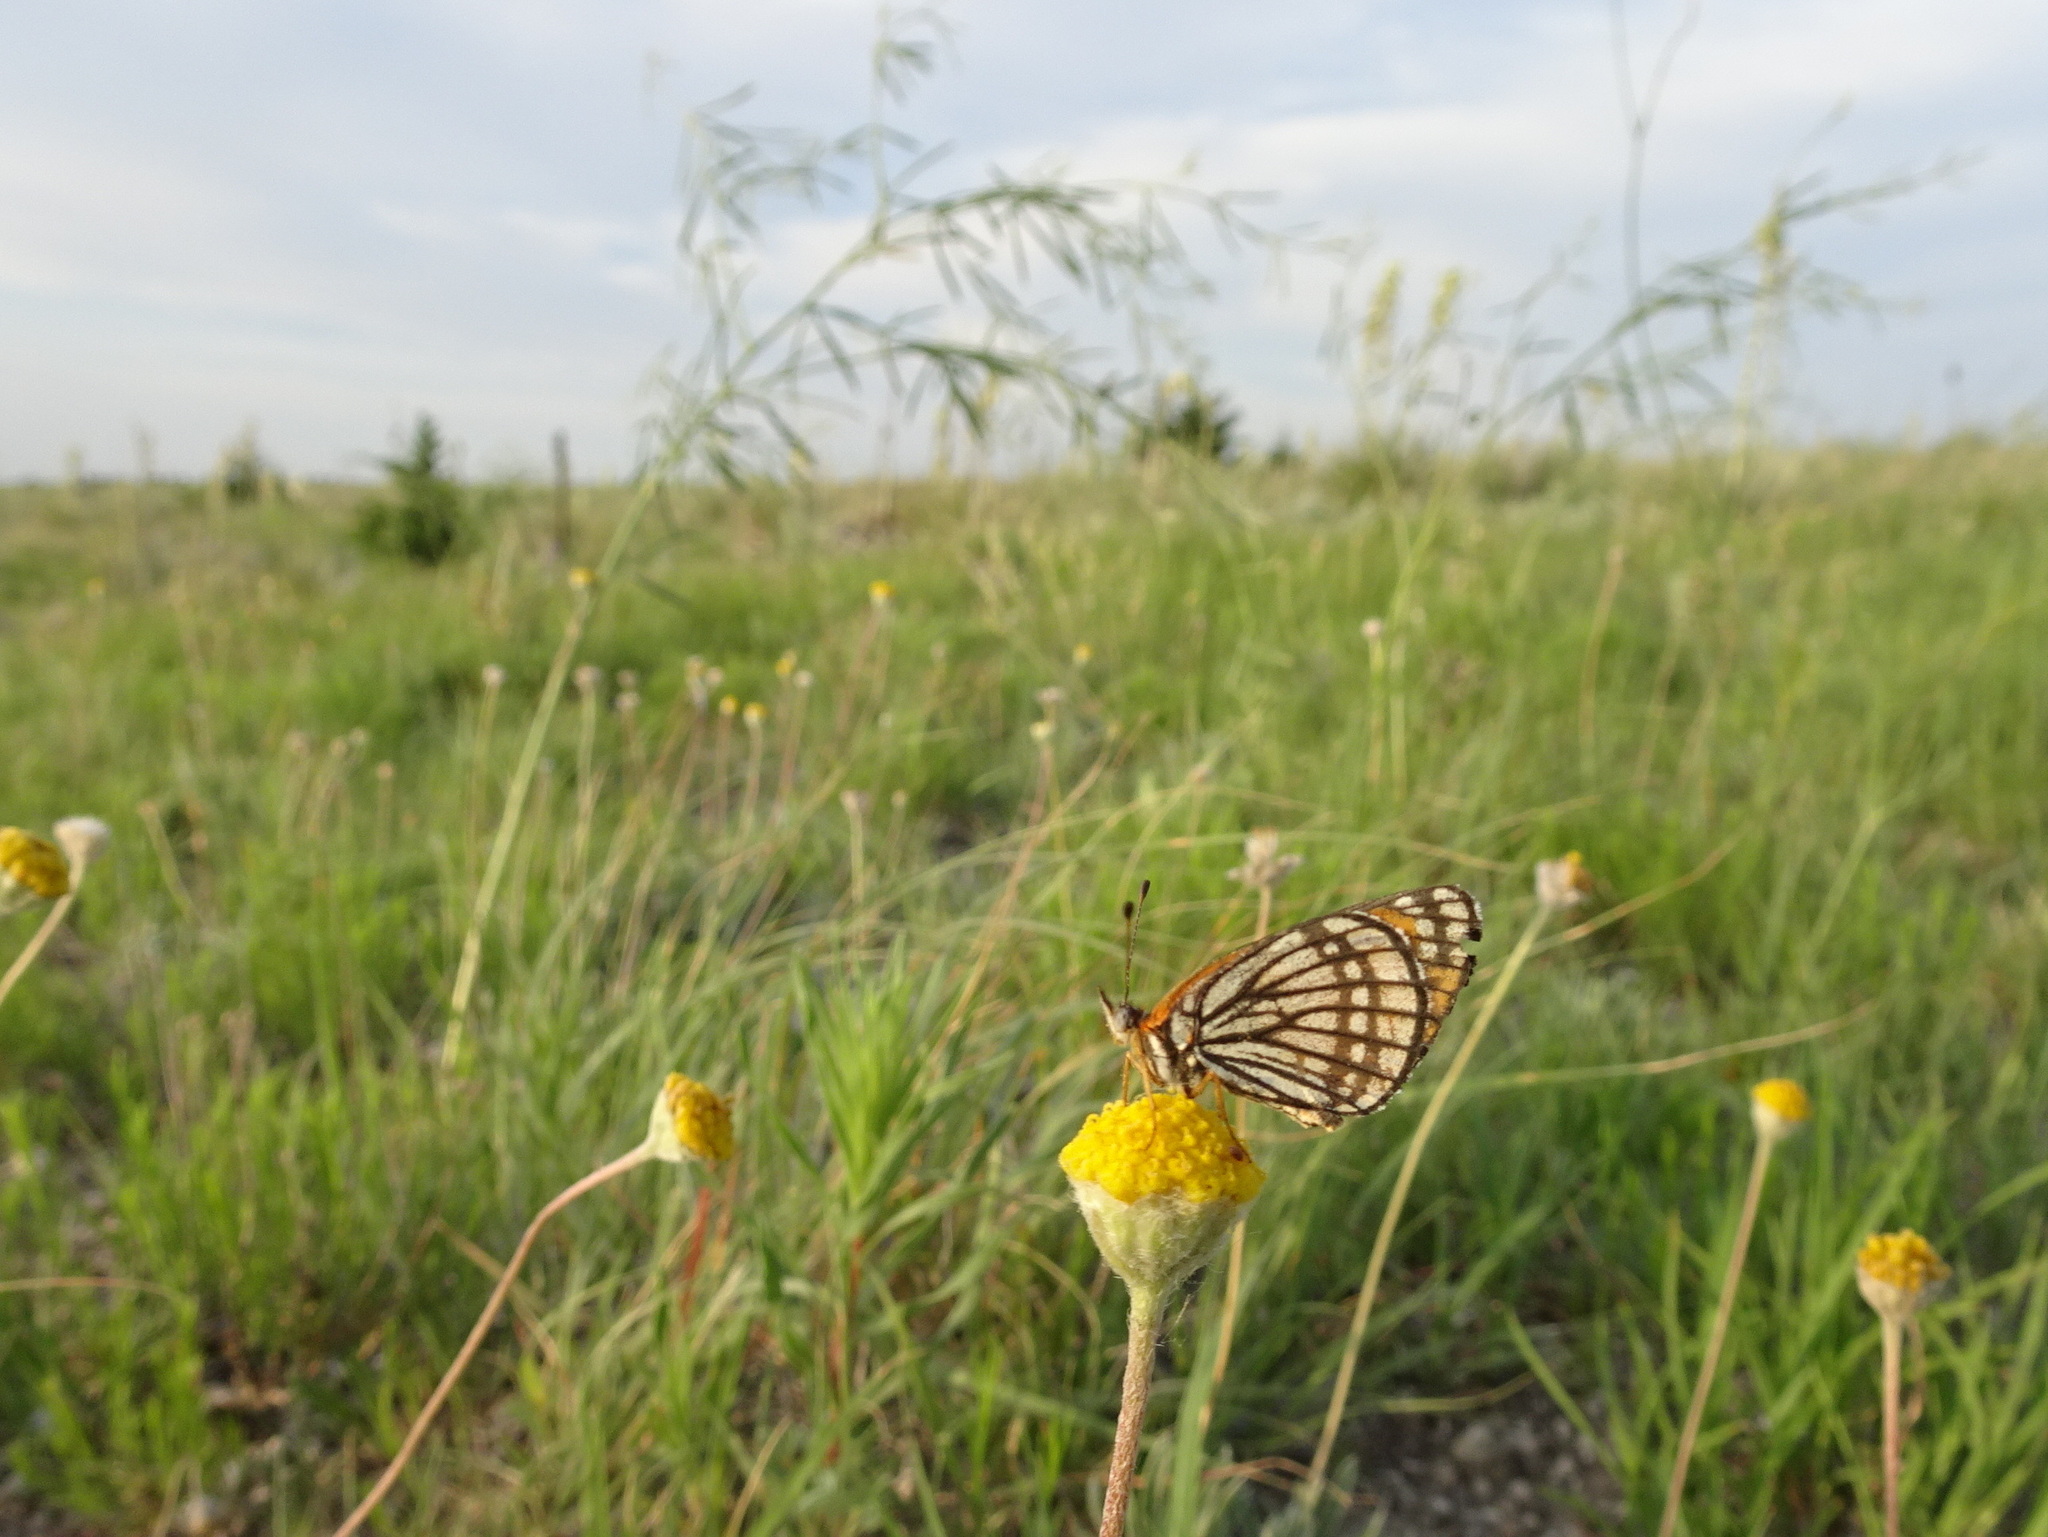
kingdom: Animalia
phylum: Arthropoda
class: Insecta
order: Lepidoptera
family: Nymphalidae
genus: Thessalia
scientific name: Thessalia leanira
